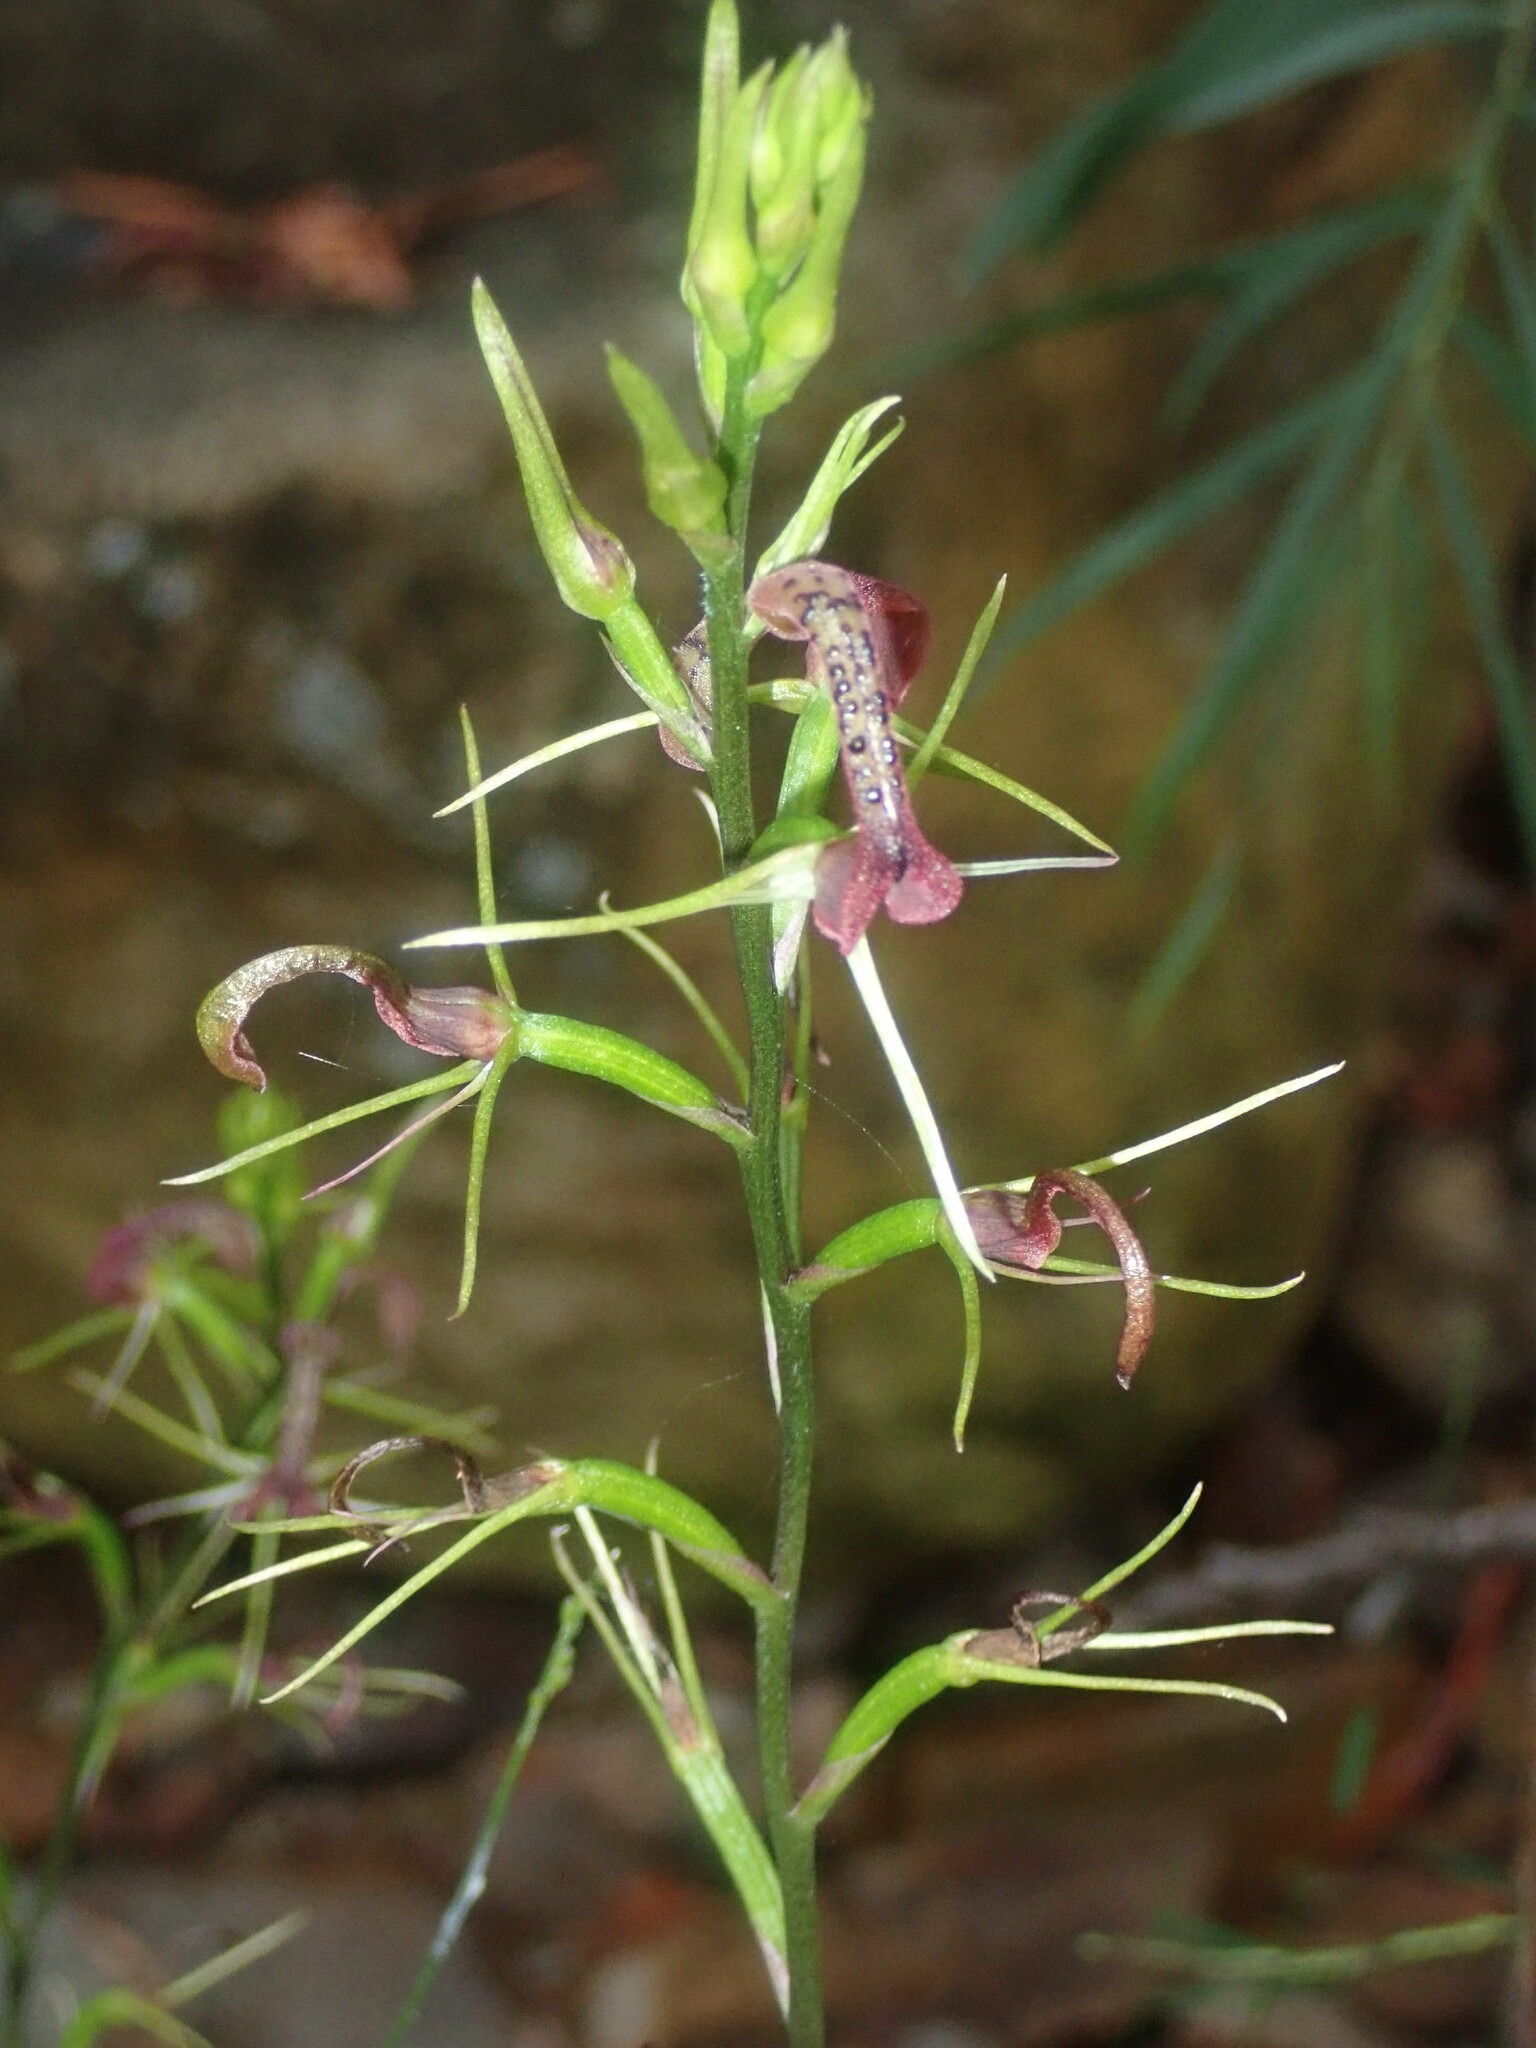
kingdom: Plantae
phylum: Tracheophyta
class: Liliopsida
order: Asparagales
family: Orchidaceae
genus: Cryptostylis
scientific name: Cryptostylis leptochila
